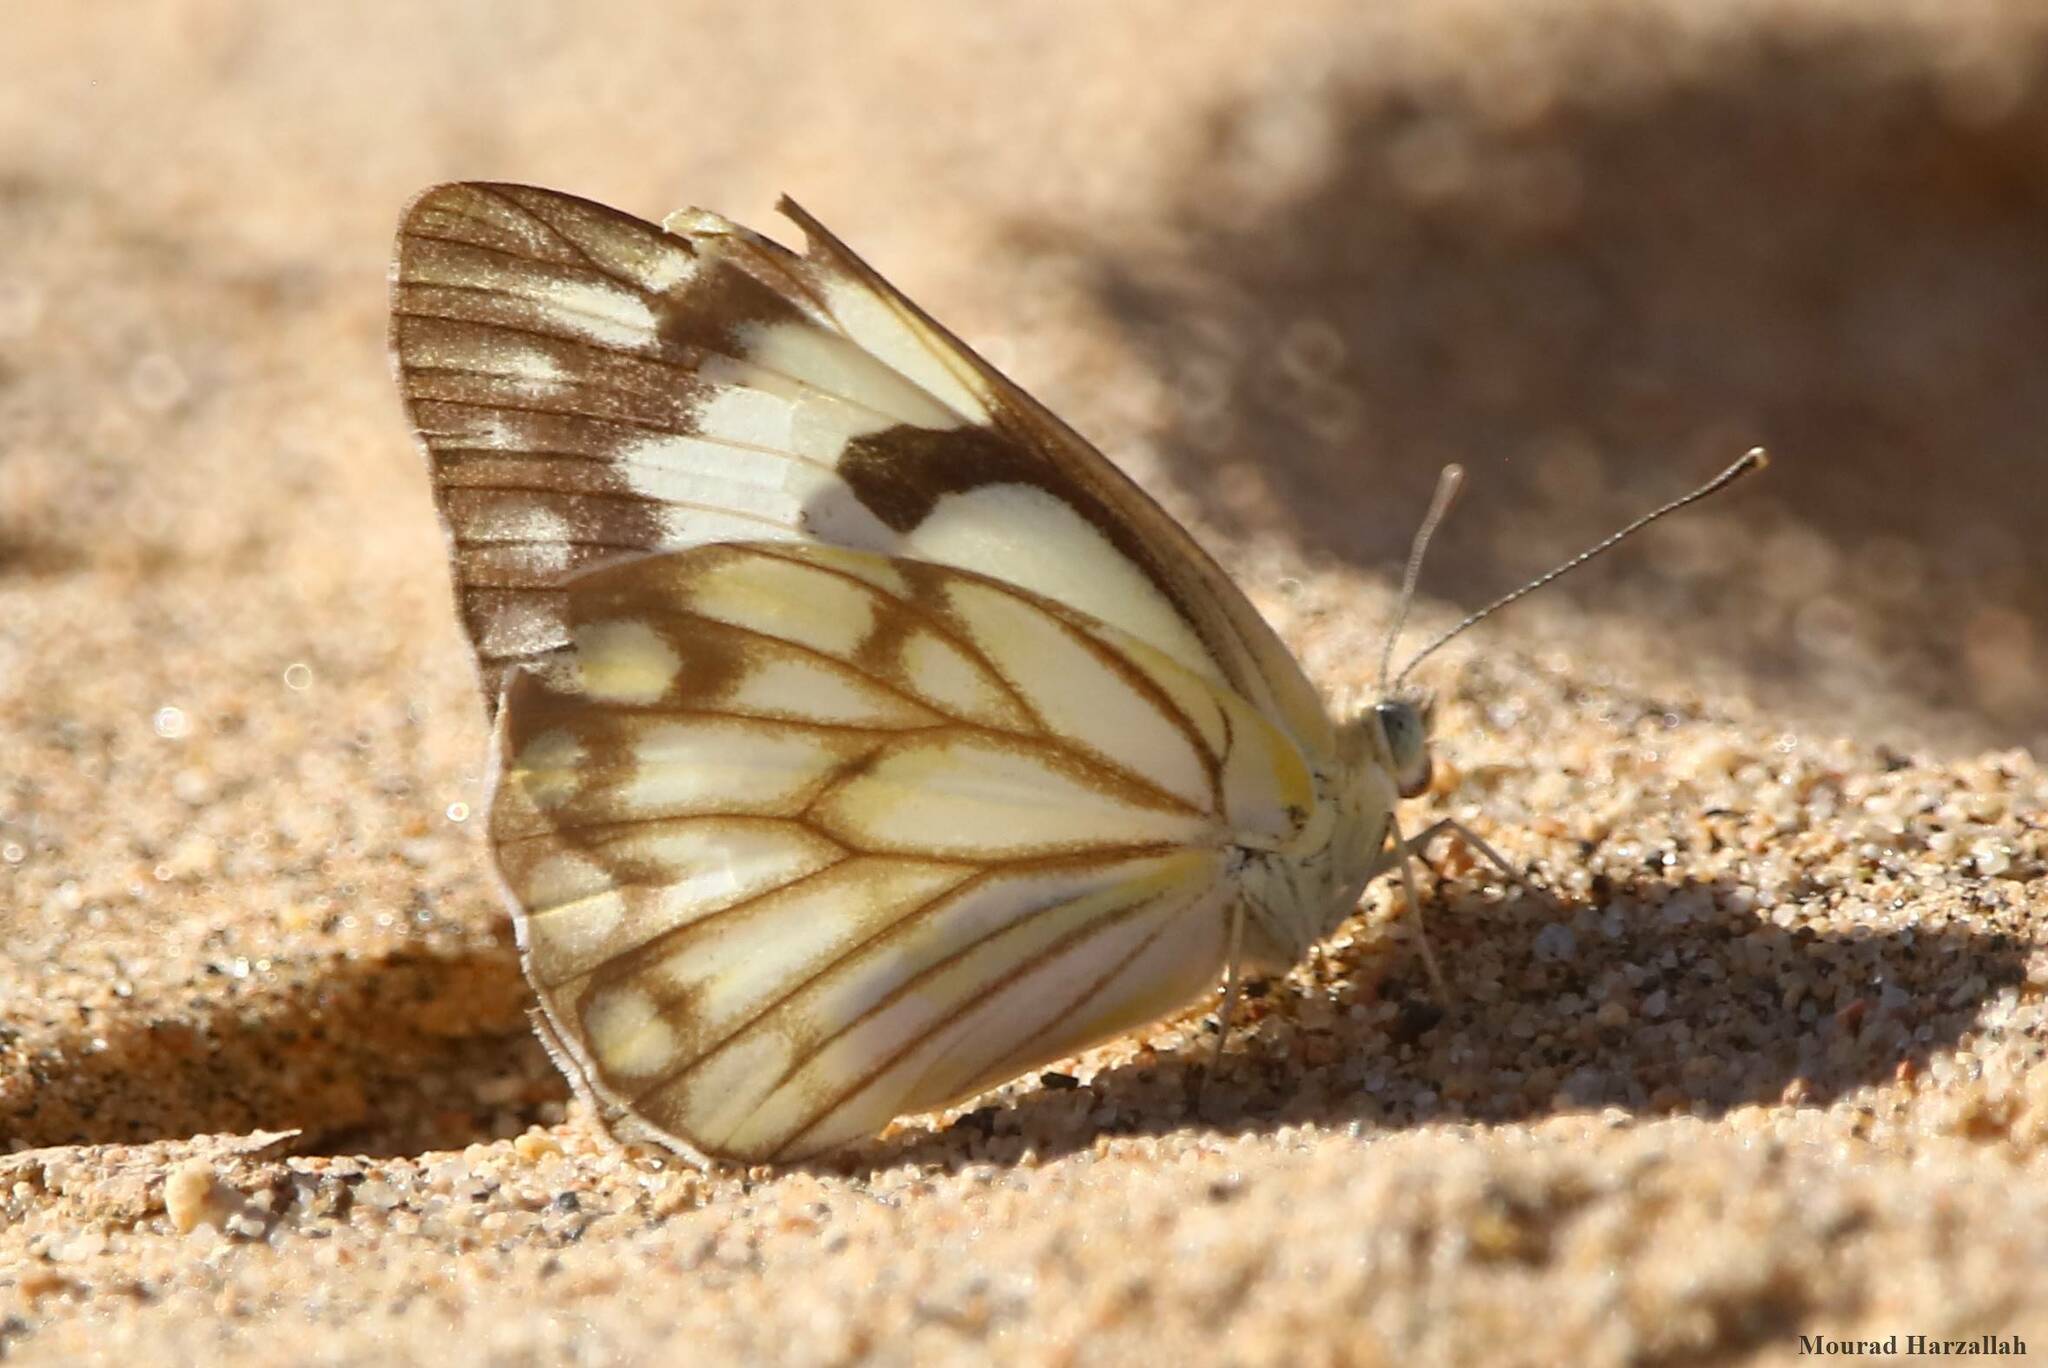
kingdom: Animalia
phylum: Arthropoda
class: Insecta
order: Lepidoptera
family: Pieridae
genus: Belenois
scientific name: Belenois aurota
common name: Brown-veined white
